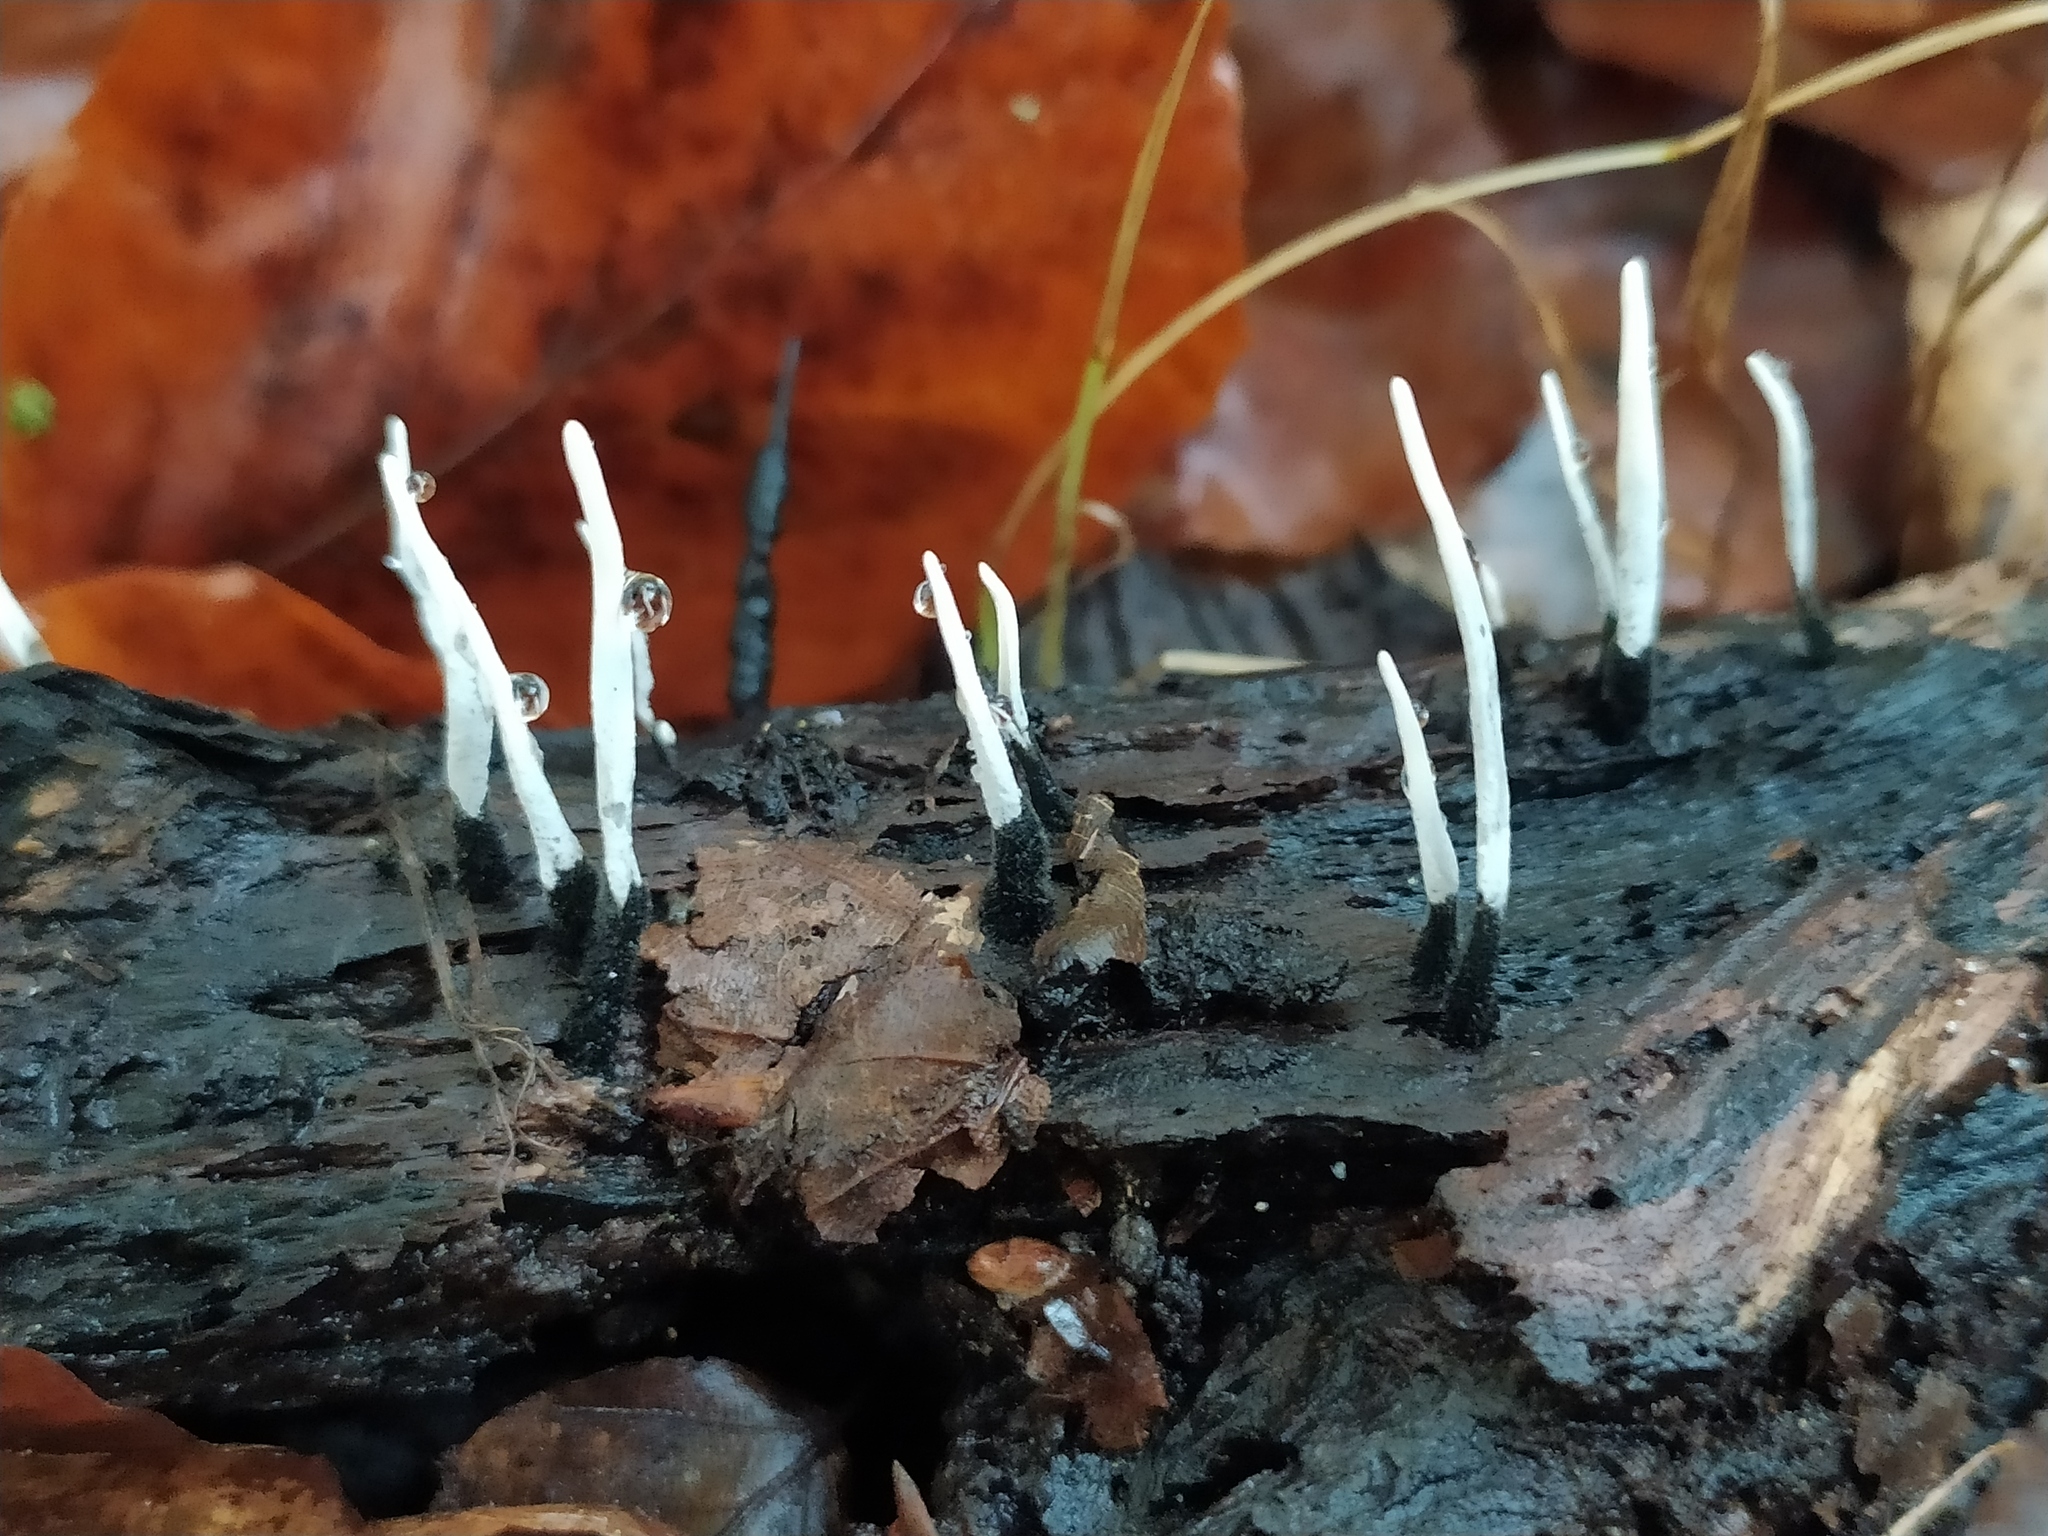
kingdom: Fungi
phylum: Ascomycota
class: Sordariomycetes
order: Xylariales
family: Xylariaceae
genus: Xylaria
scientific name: Xylaria hypoxylon
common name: Candle-snuff fungus
